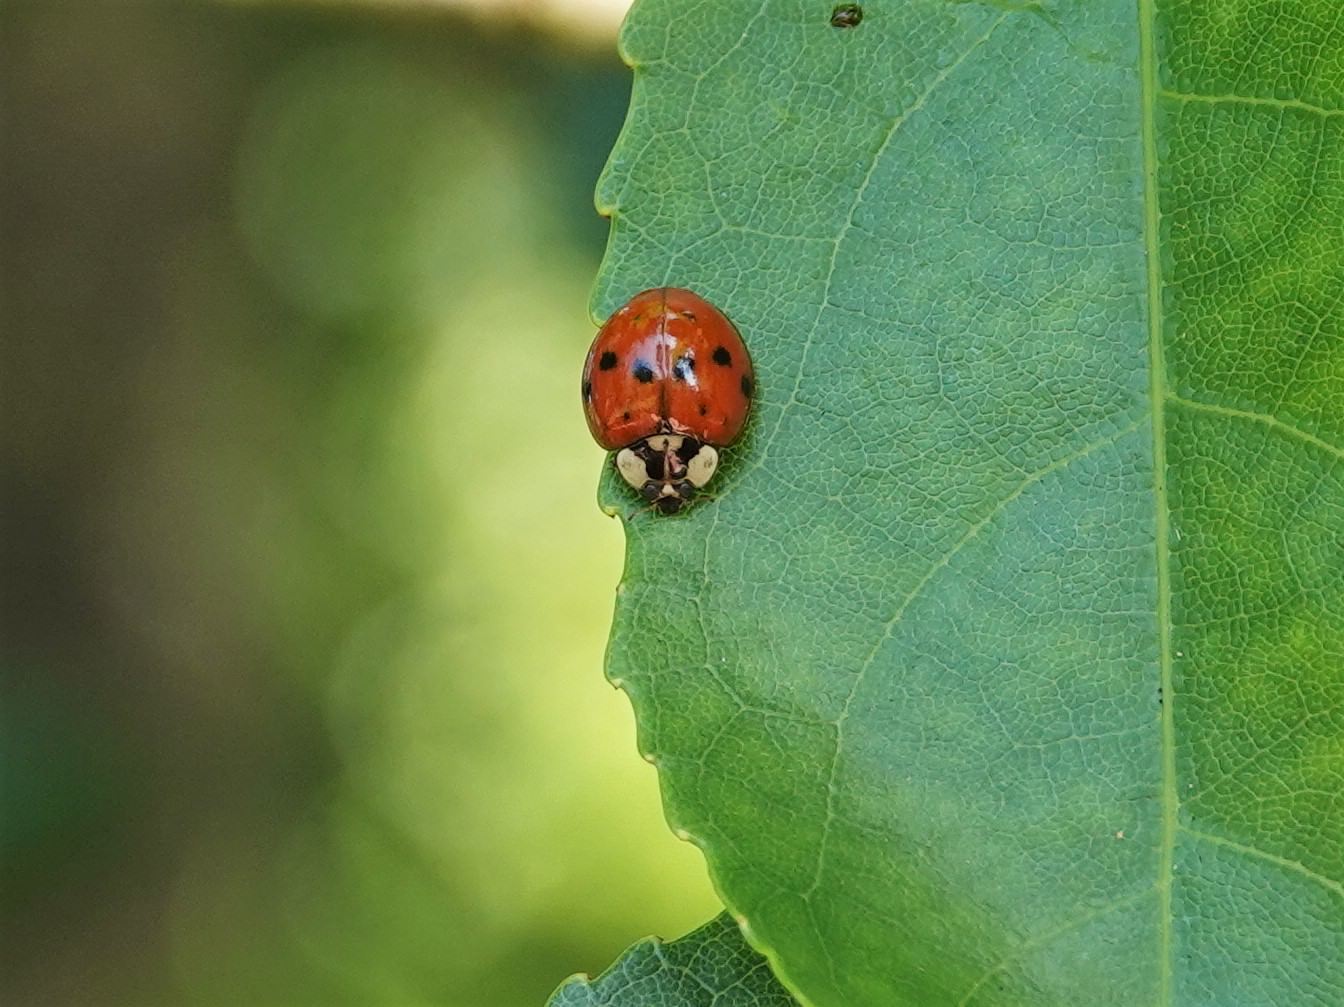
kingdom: Animalia
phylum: Arthropoda
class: Insecta
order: Coleoptera
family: Coccinellidae
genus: Harmonia
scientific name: Harmonia axyridis
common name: Harlequin ladybird
